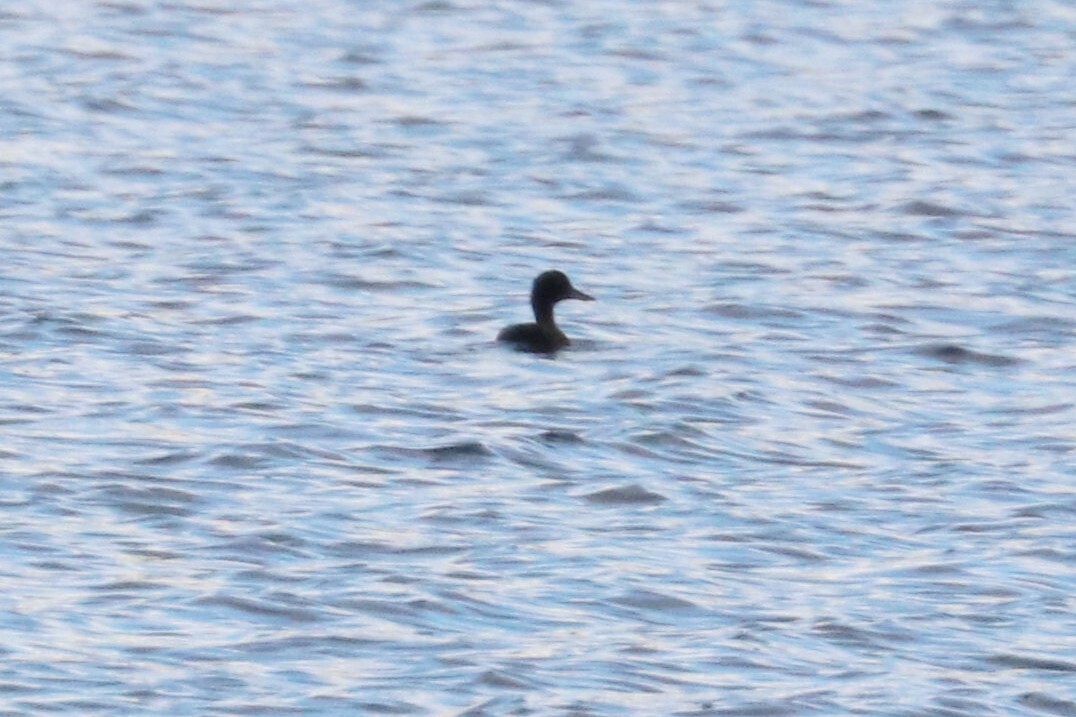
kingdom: Animalia
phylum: Chordata
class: Aves
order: Anseriformes
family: Anatidae
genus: Aythya
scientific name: Aythya fuligula
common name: Tufted duck
